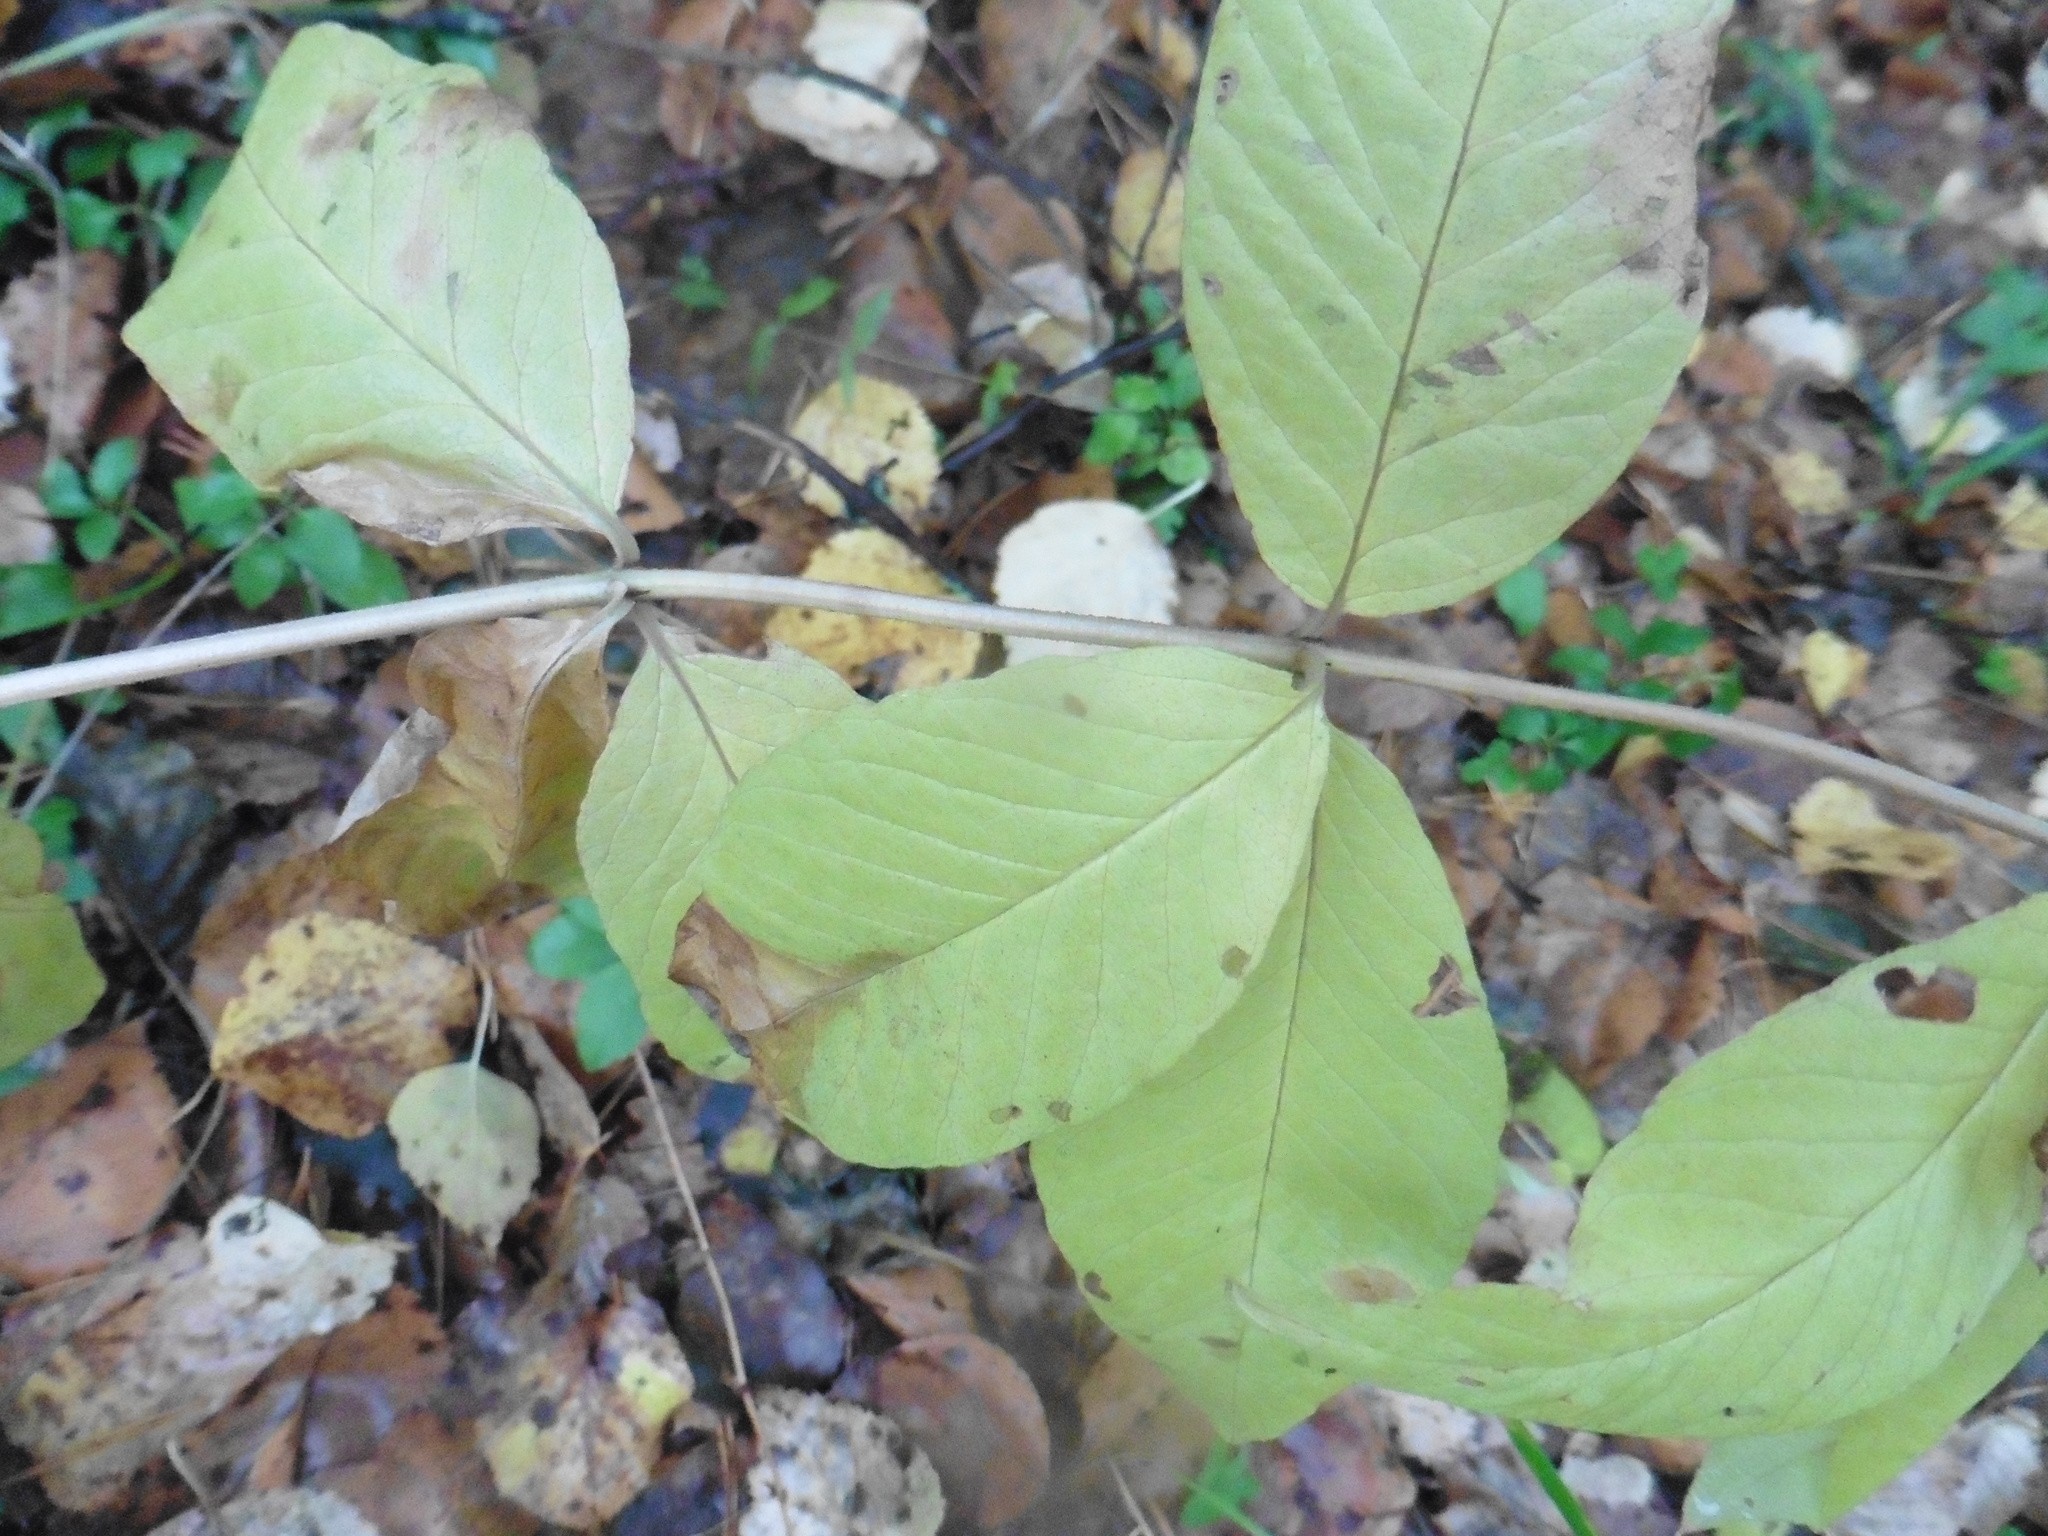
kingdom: Plantae
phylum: Tracheophyta
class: Magnoliopsida
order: Ericales
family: Primulaceae
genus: Lysimachia
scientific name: Lysimachia vulgaris
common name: Yellow loosestrife
